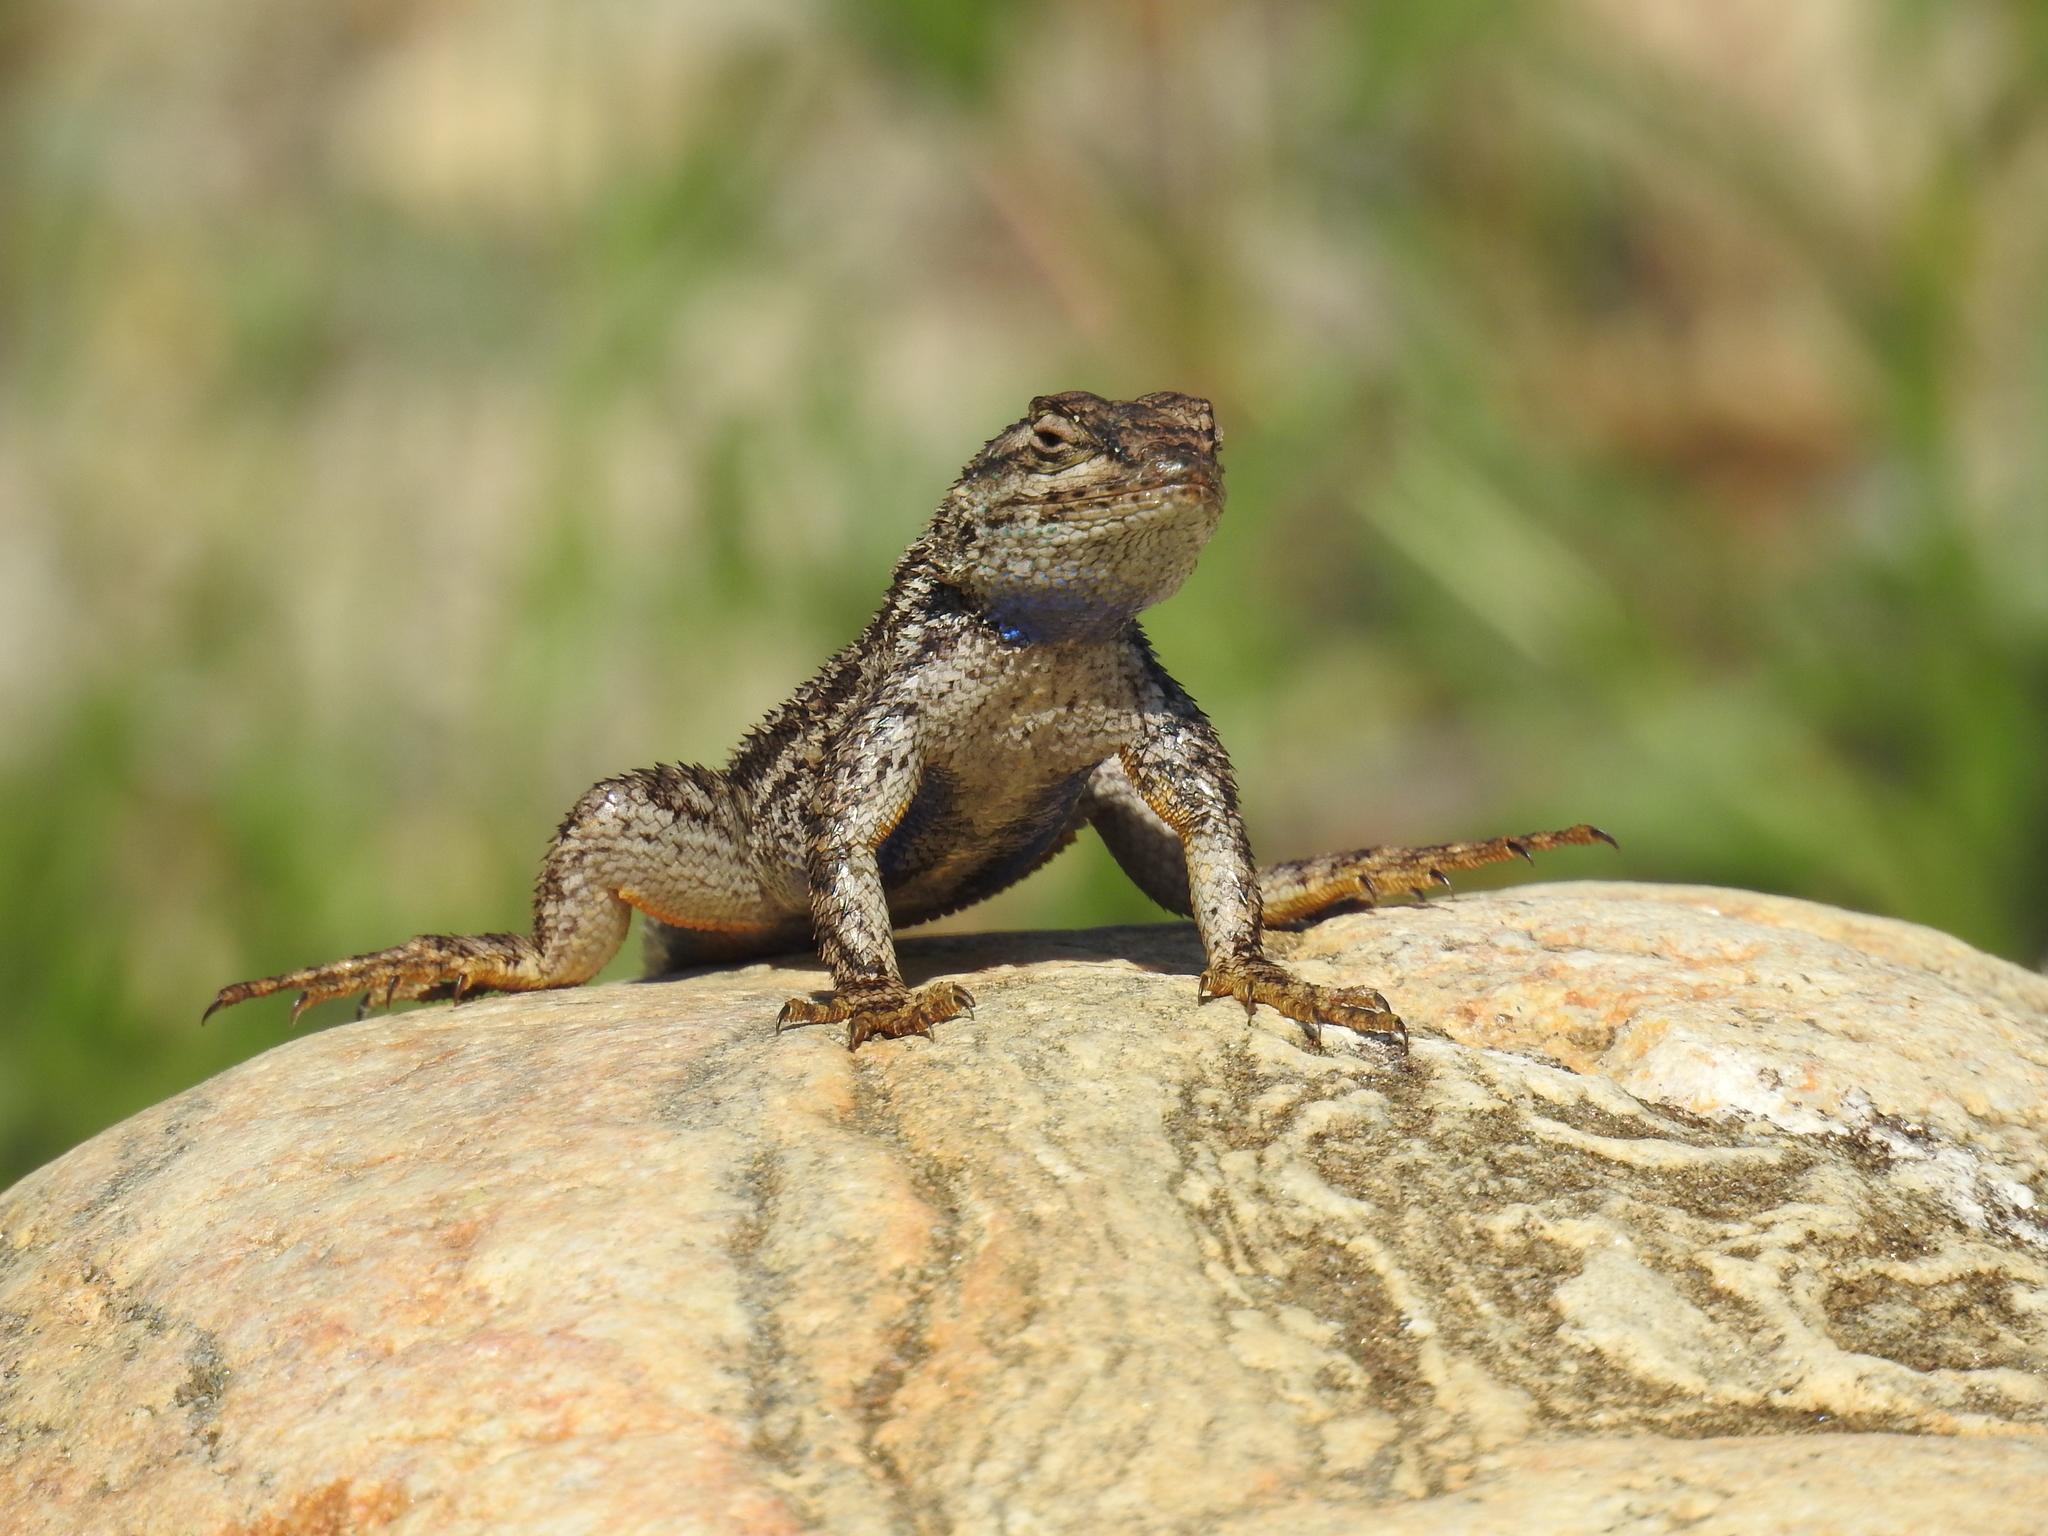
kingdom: Animalia
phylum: Chordata
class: Squamata
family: Phrynosomatidae
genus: Sceloporus
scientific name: Sceloporus occidentalis
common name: Western fence lizard
